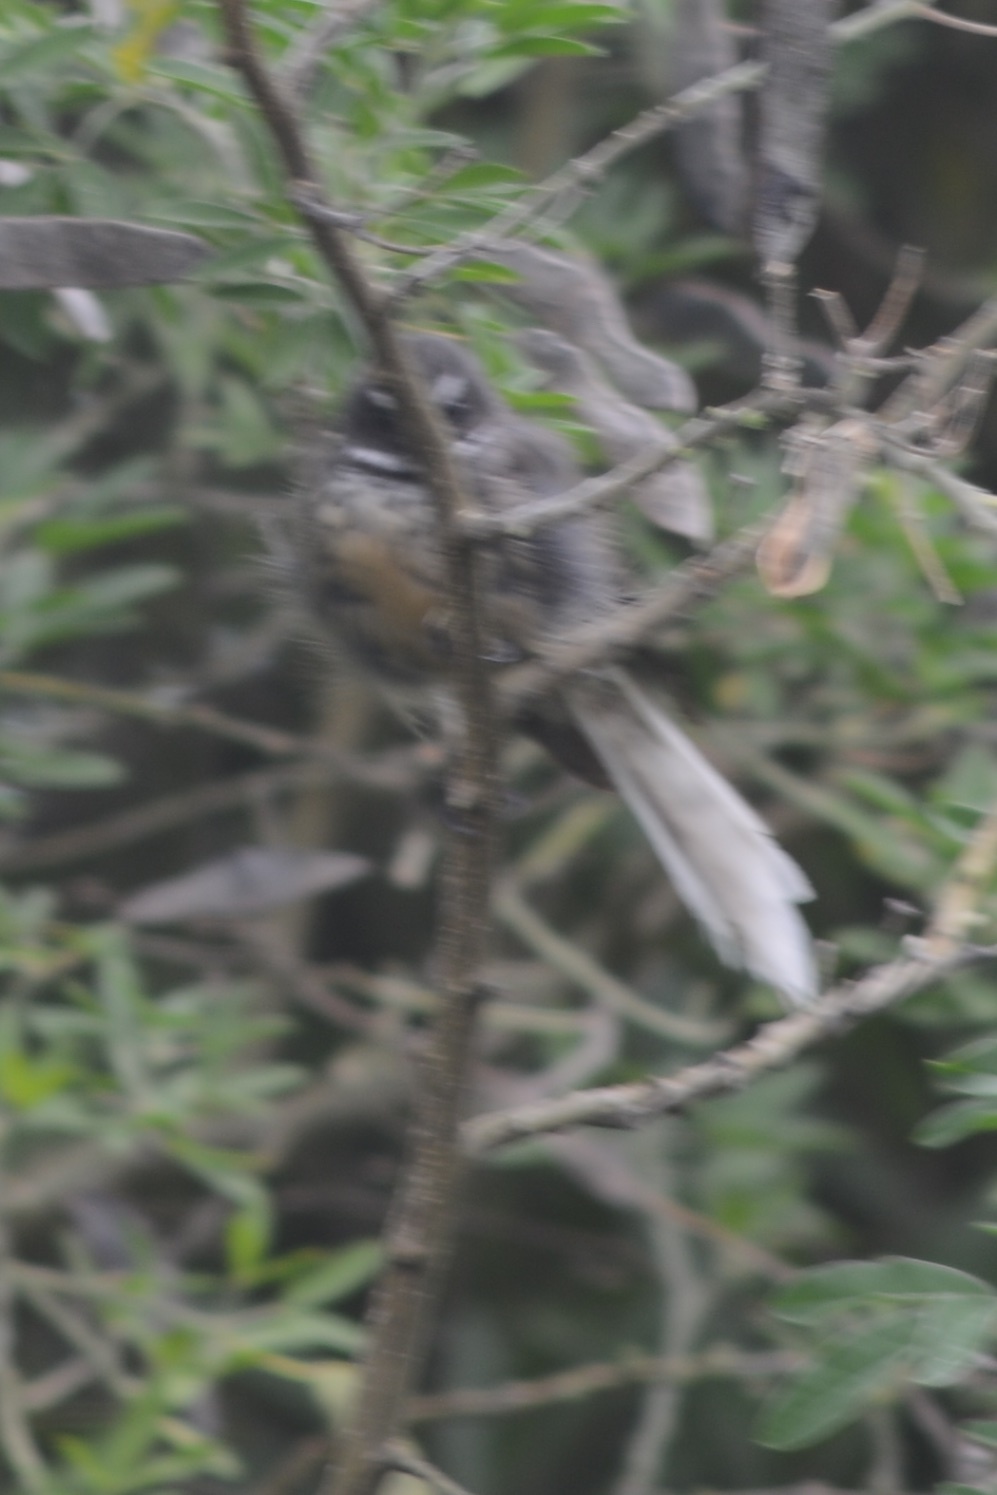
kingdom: Animalia
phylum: Chordata
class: Aves
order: Passeriformes
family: Rhipiduridae
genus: Rhipidura
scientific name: Rhipidura fuliginosa
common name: New zealand fantail
